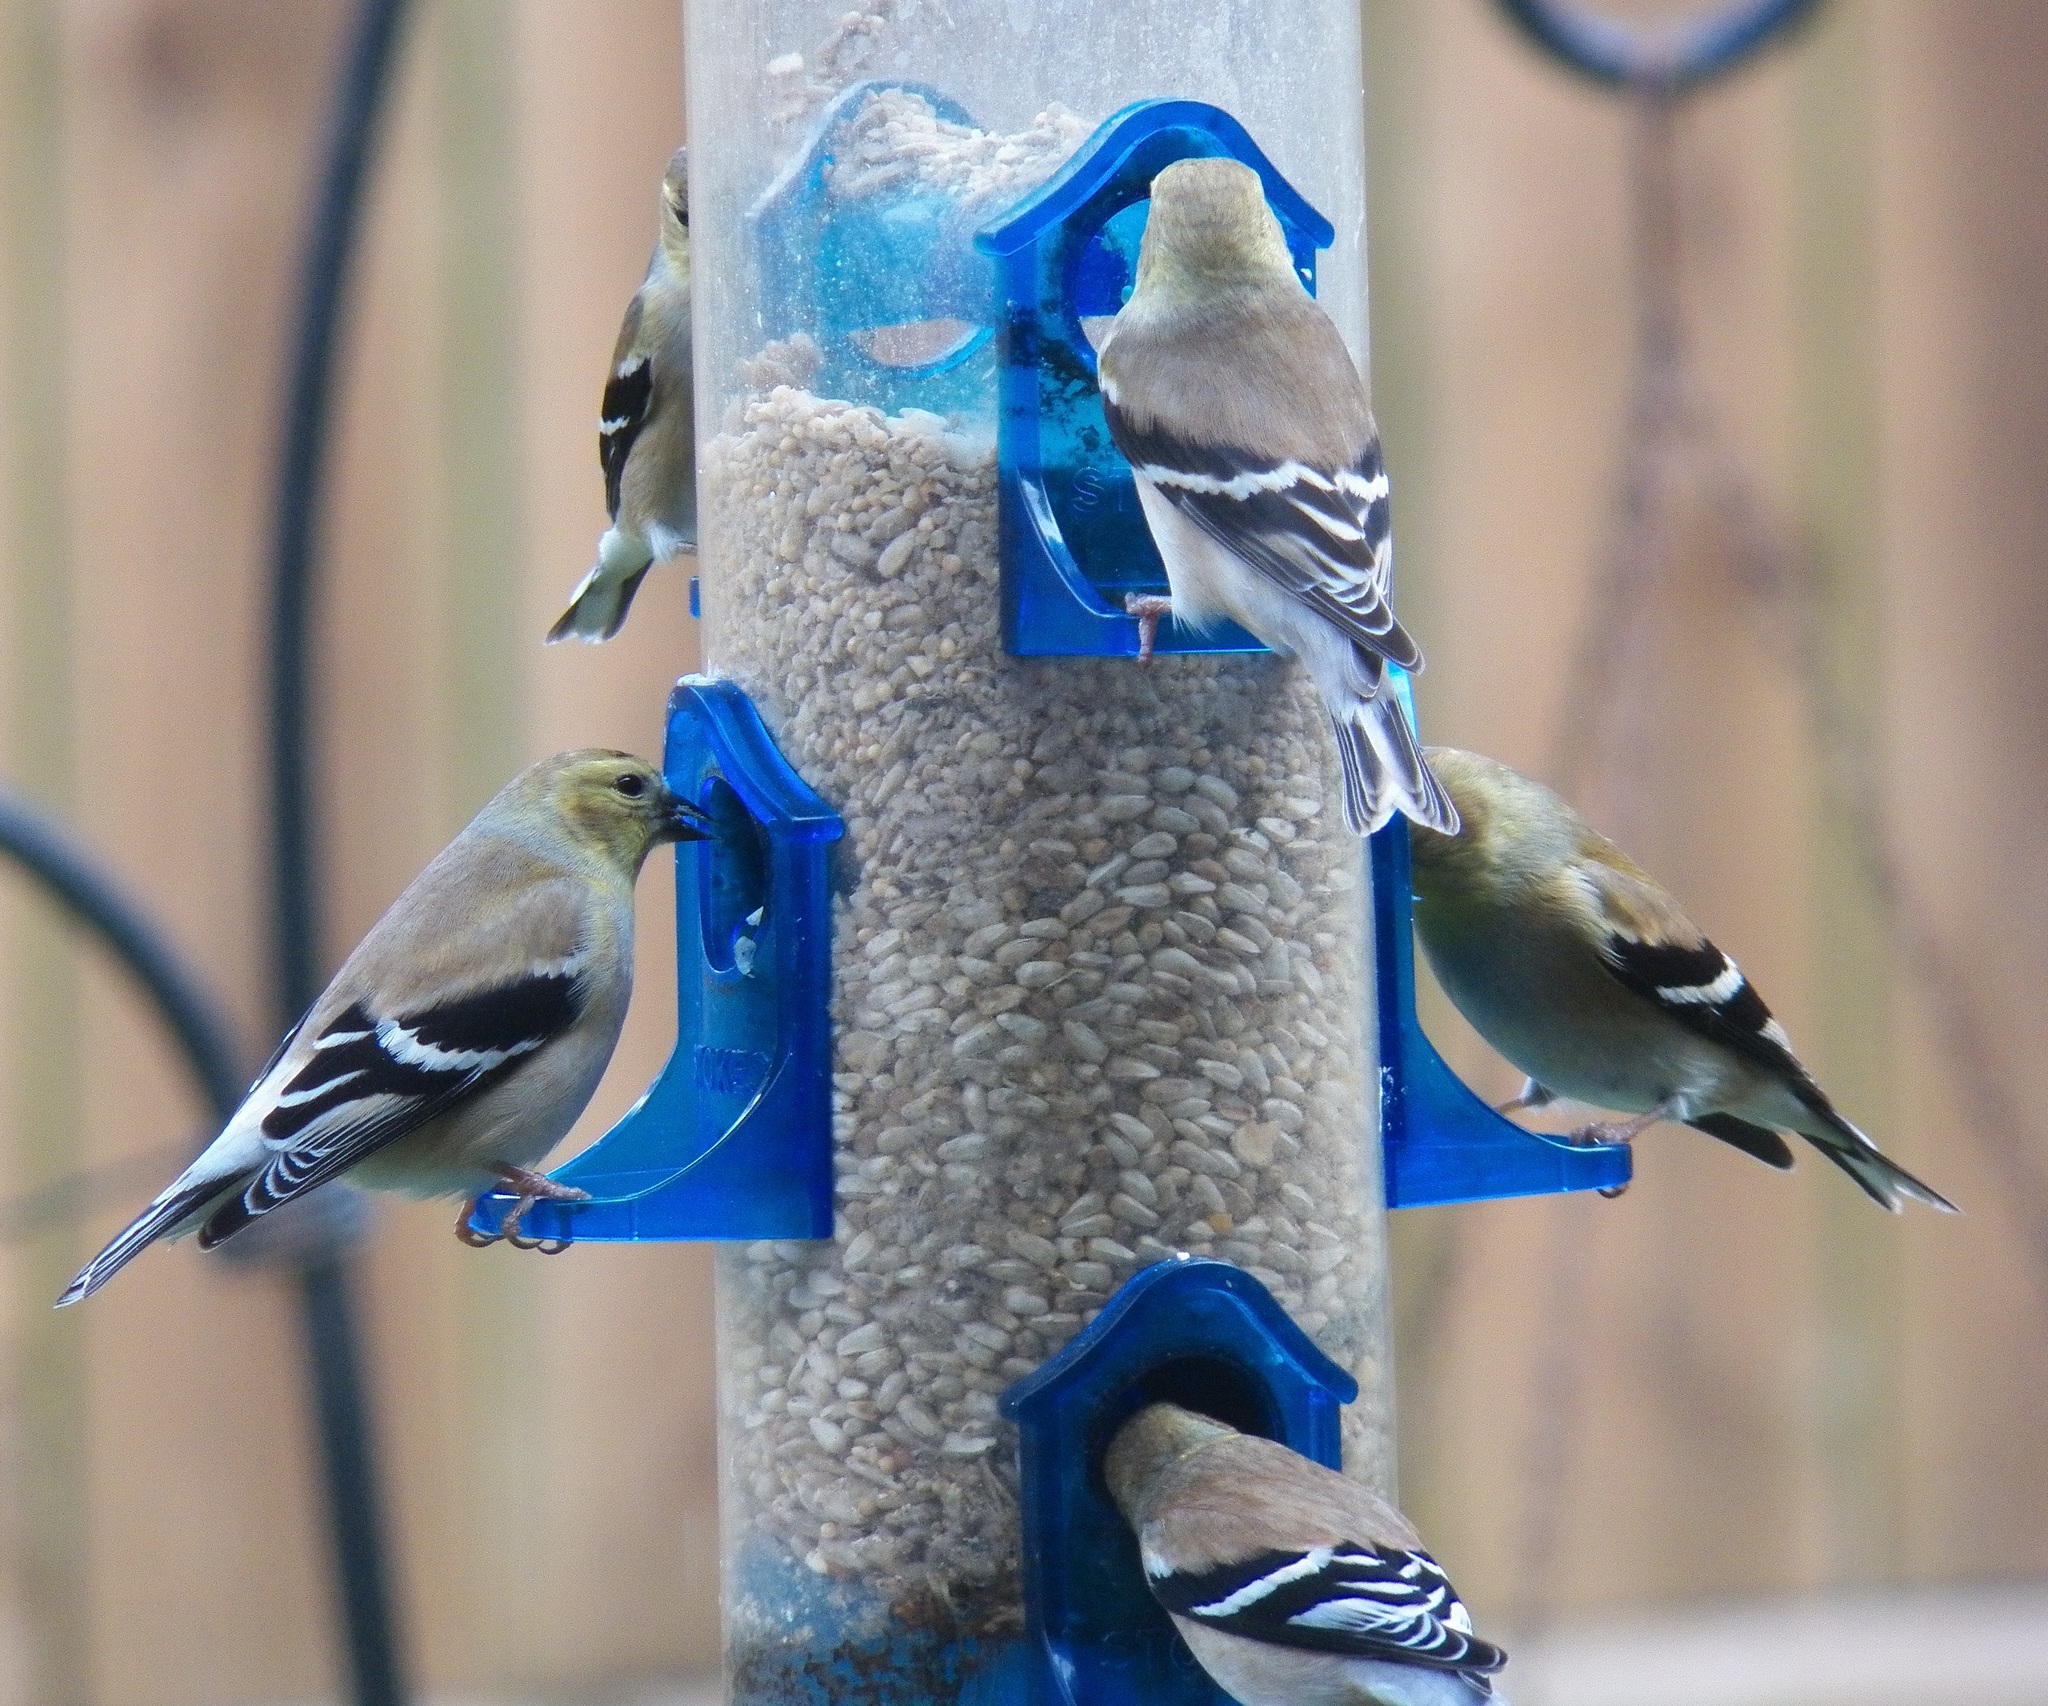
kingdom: Animalia
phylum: Chordata
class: Aves
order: Passeriformes
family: Fringillidae
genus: Spinus
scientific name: Spinus tristis
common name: American goldfinch
